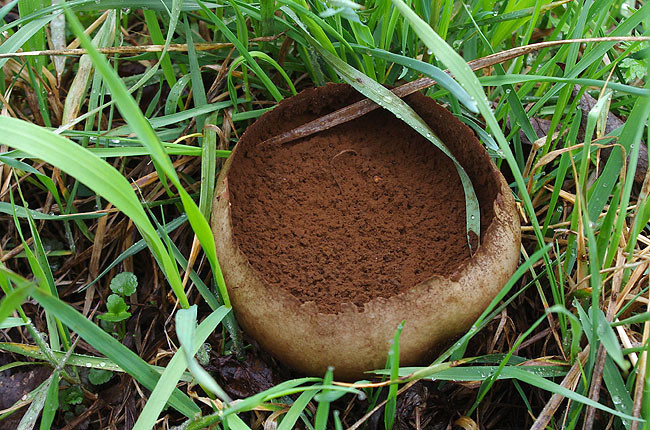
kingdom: Fungi
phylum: Basidiomycota
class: Agaricomycetes
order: Agaricales
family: Lycoperdaceae
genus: Bovistella
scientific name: Bovistella utriformis
